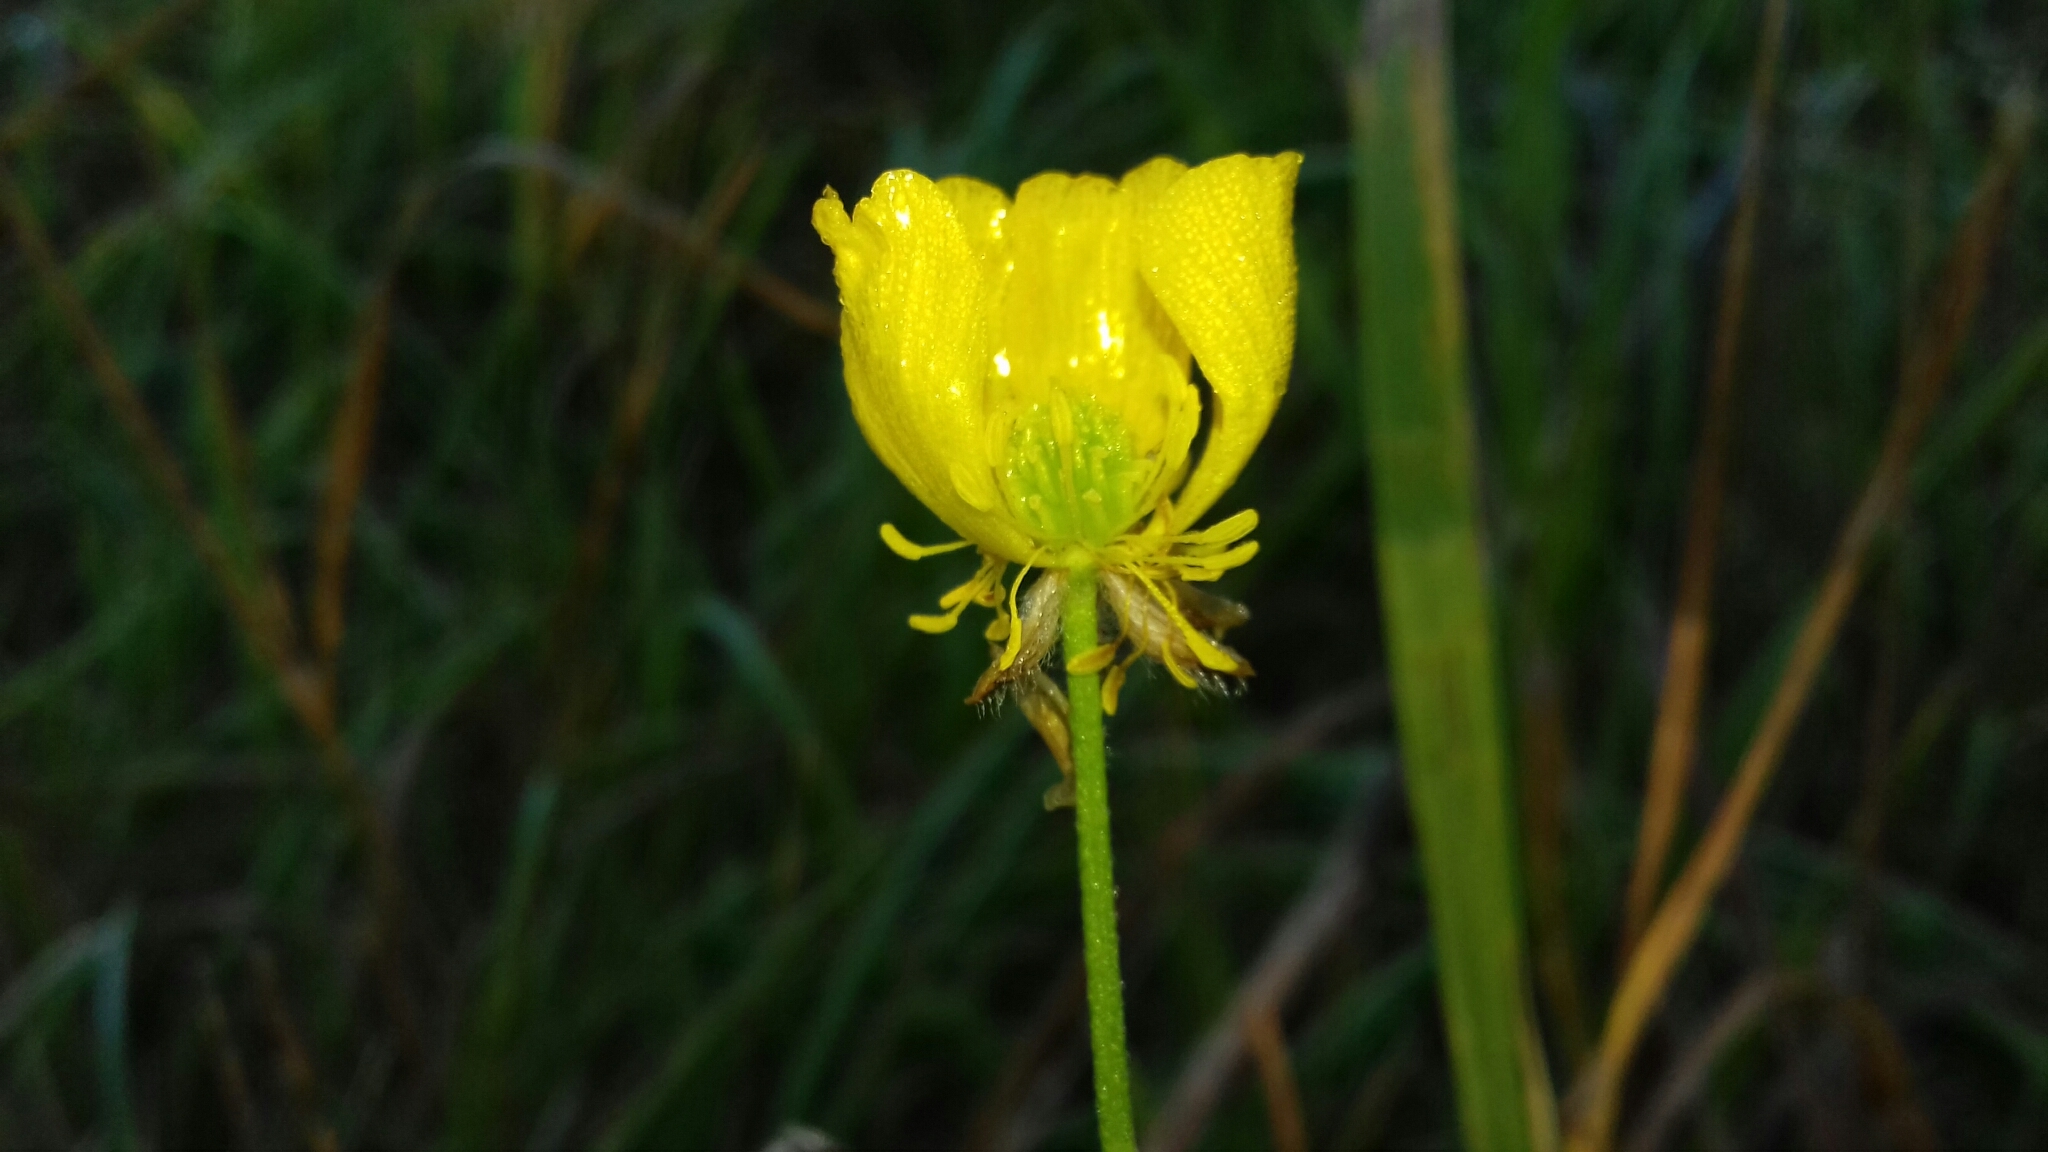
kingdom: Plantae
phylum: Tracheophyta
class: Magnoliopsida
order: Ranunculales
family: Ranunculaceae
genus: Ranunculus
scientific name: Ranunculus polyanthemos
